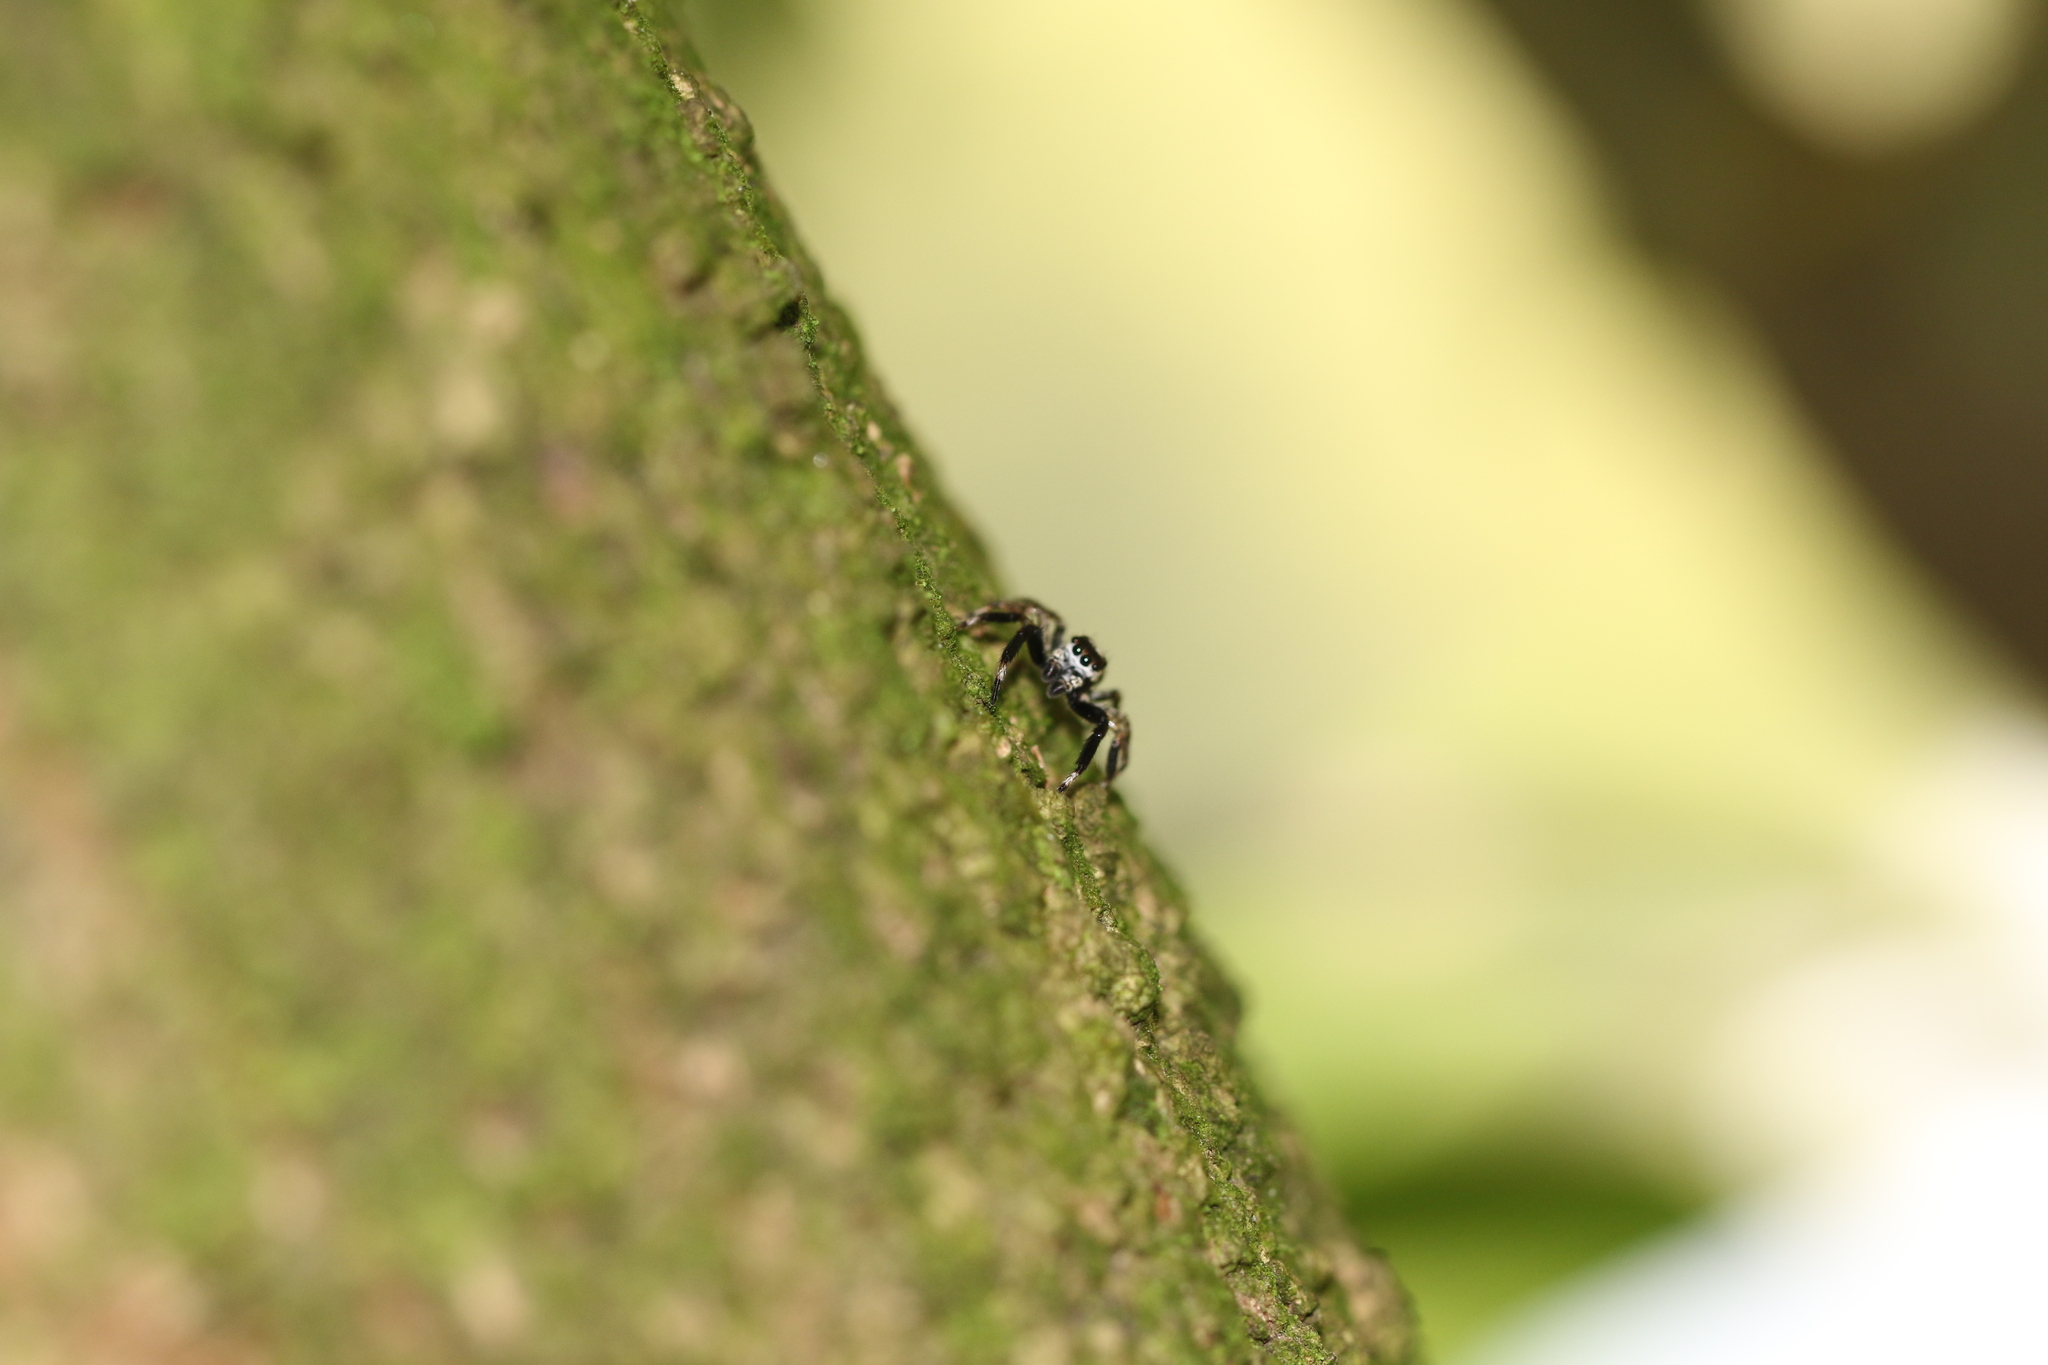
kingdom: Animalia
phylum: Arthropoda
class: Arachnida
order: Araneae
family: Salticidae
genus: Asaphobelis
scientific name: Asaphobelis physonychus
